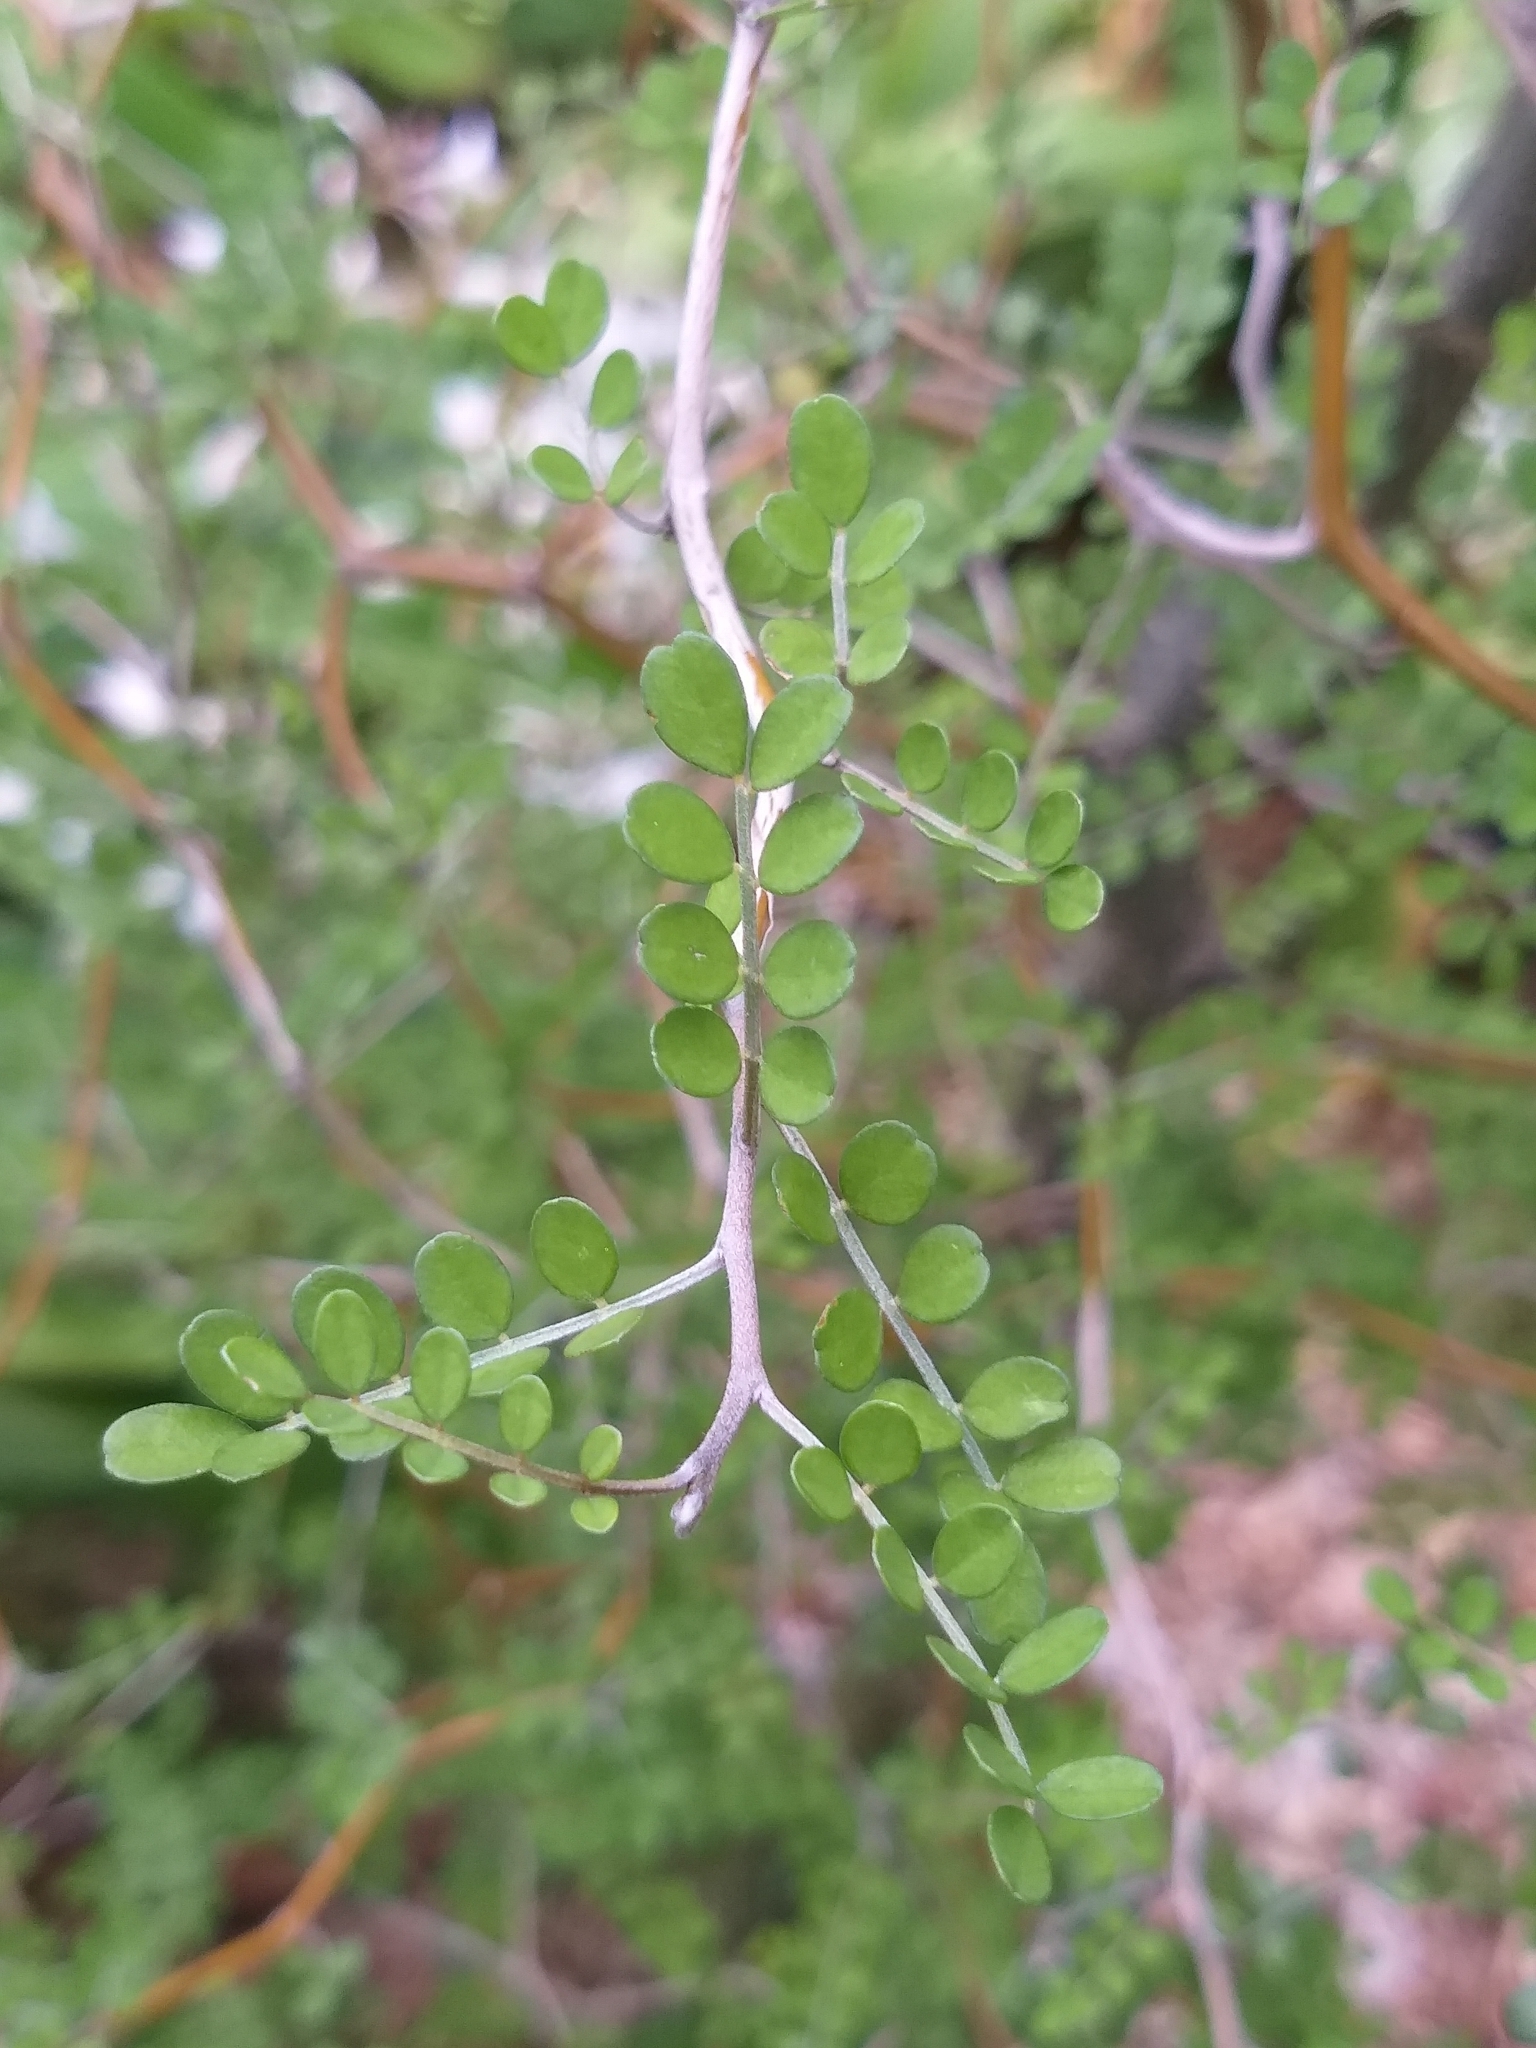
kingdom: Plantae
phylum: Tracheophyta
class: Magnoliopsida
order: Fabales
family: Fabaceae
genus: Sophora
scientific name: Sophora microphylla
